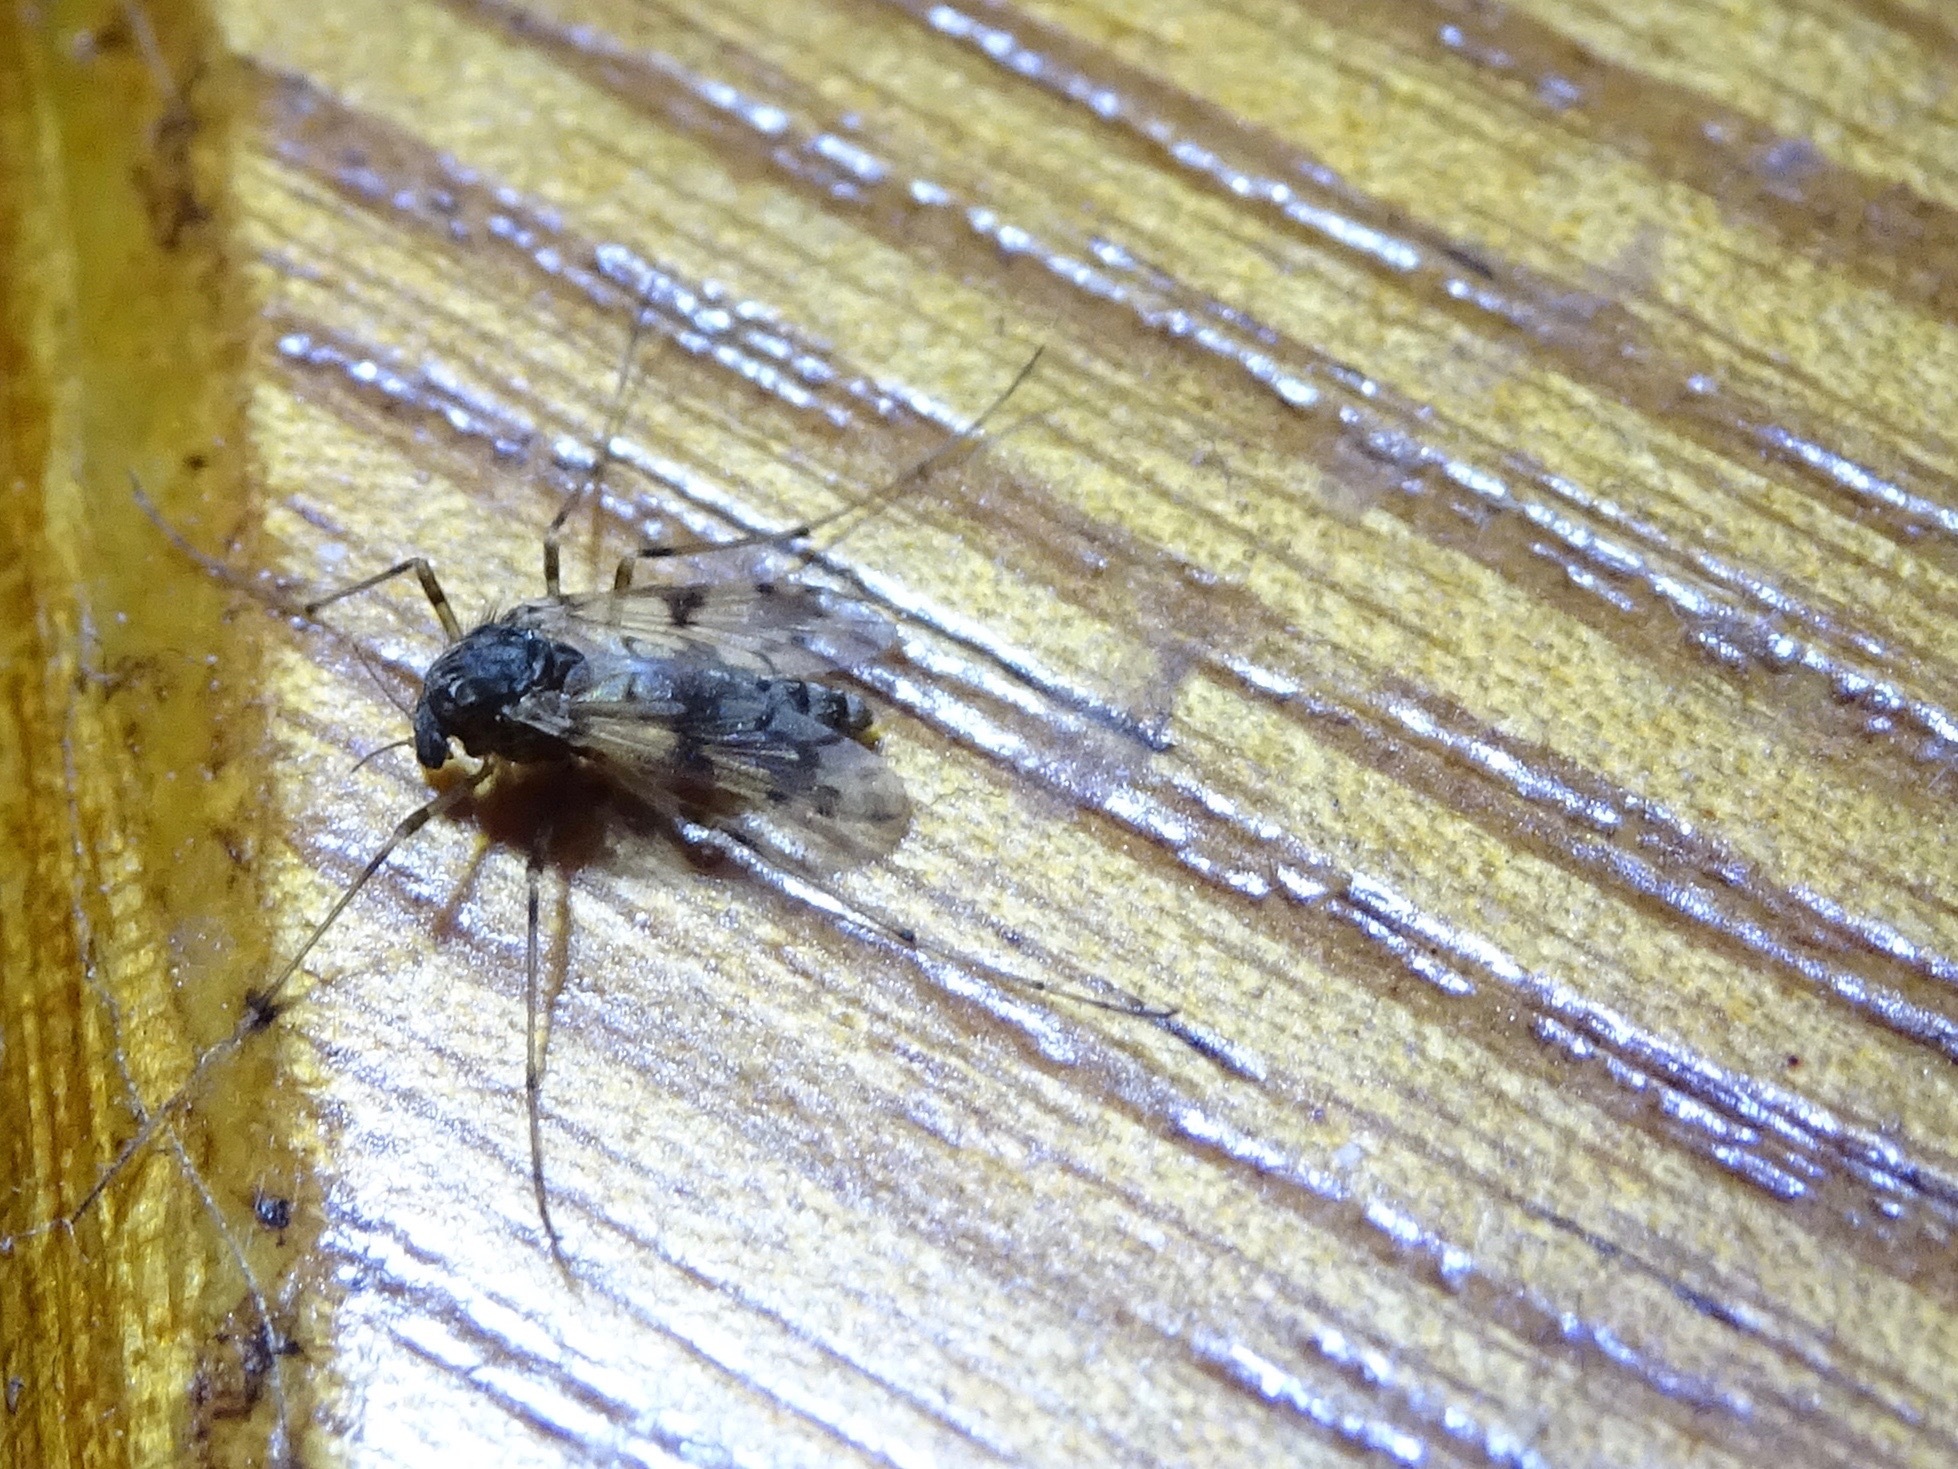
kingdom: Animalia
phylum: Arthropoda
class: Insecta
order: Diptera
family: Chironomidae
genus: Alotanypus
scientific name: Alotanypus venusta
